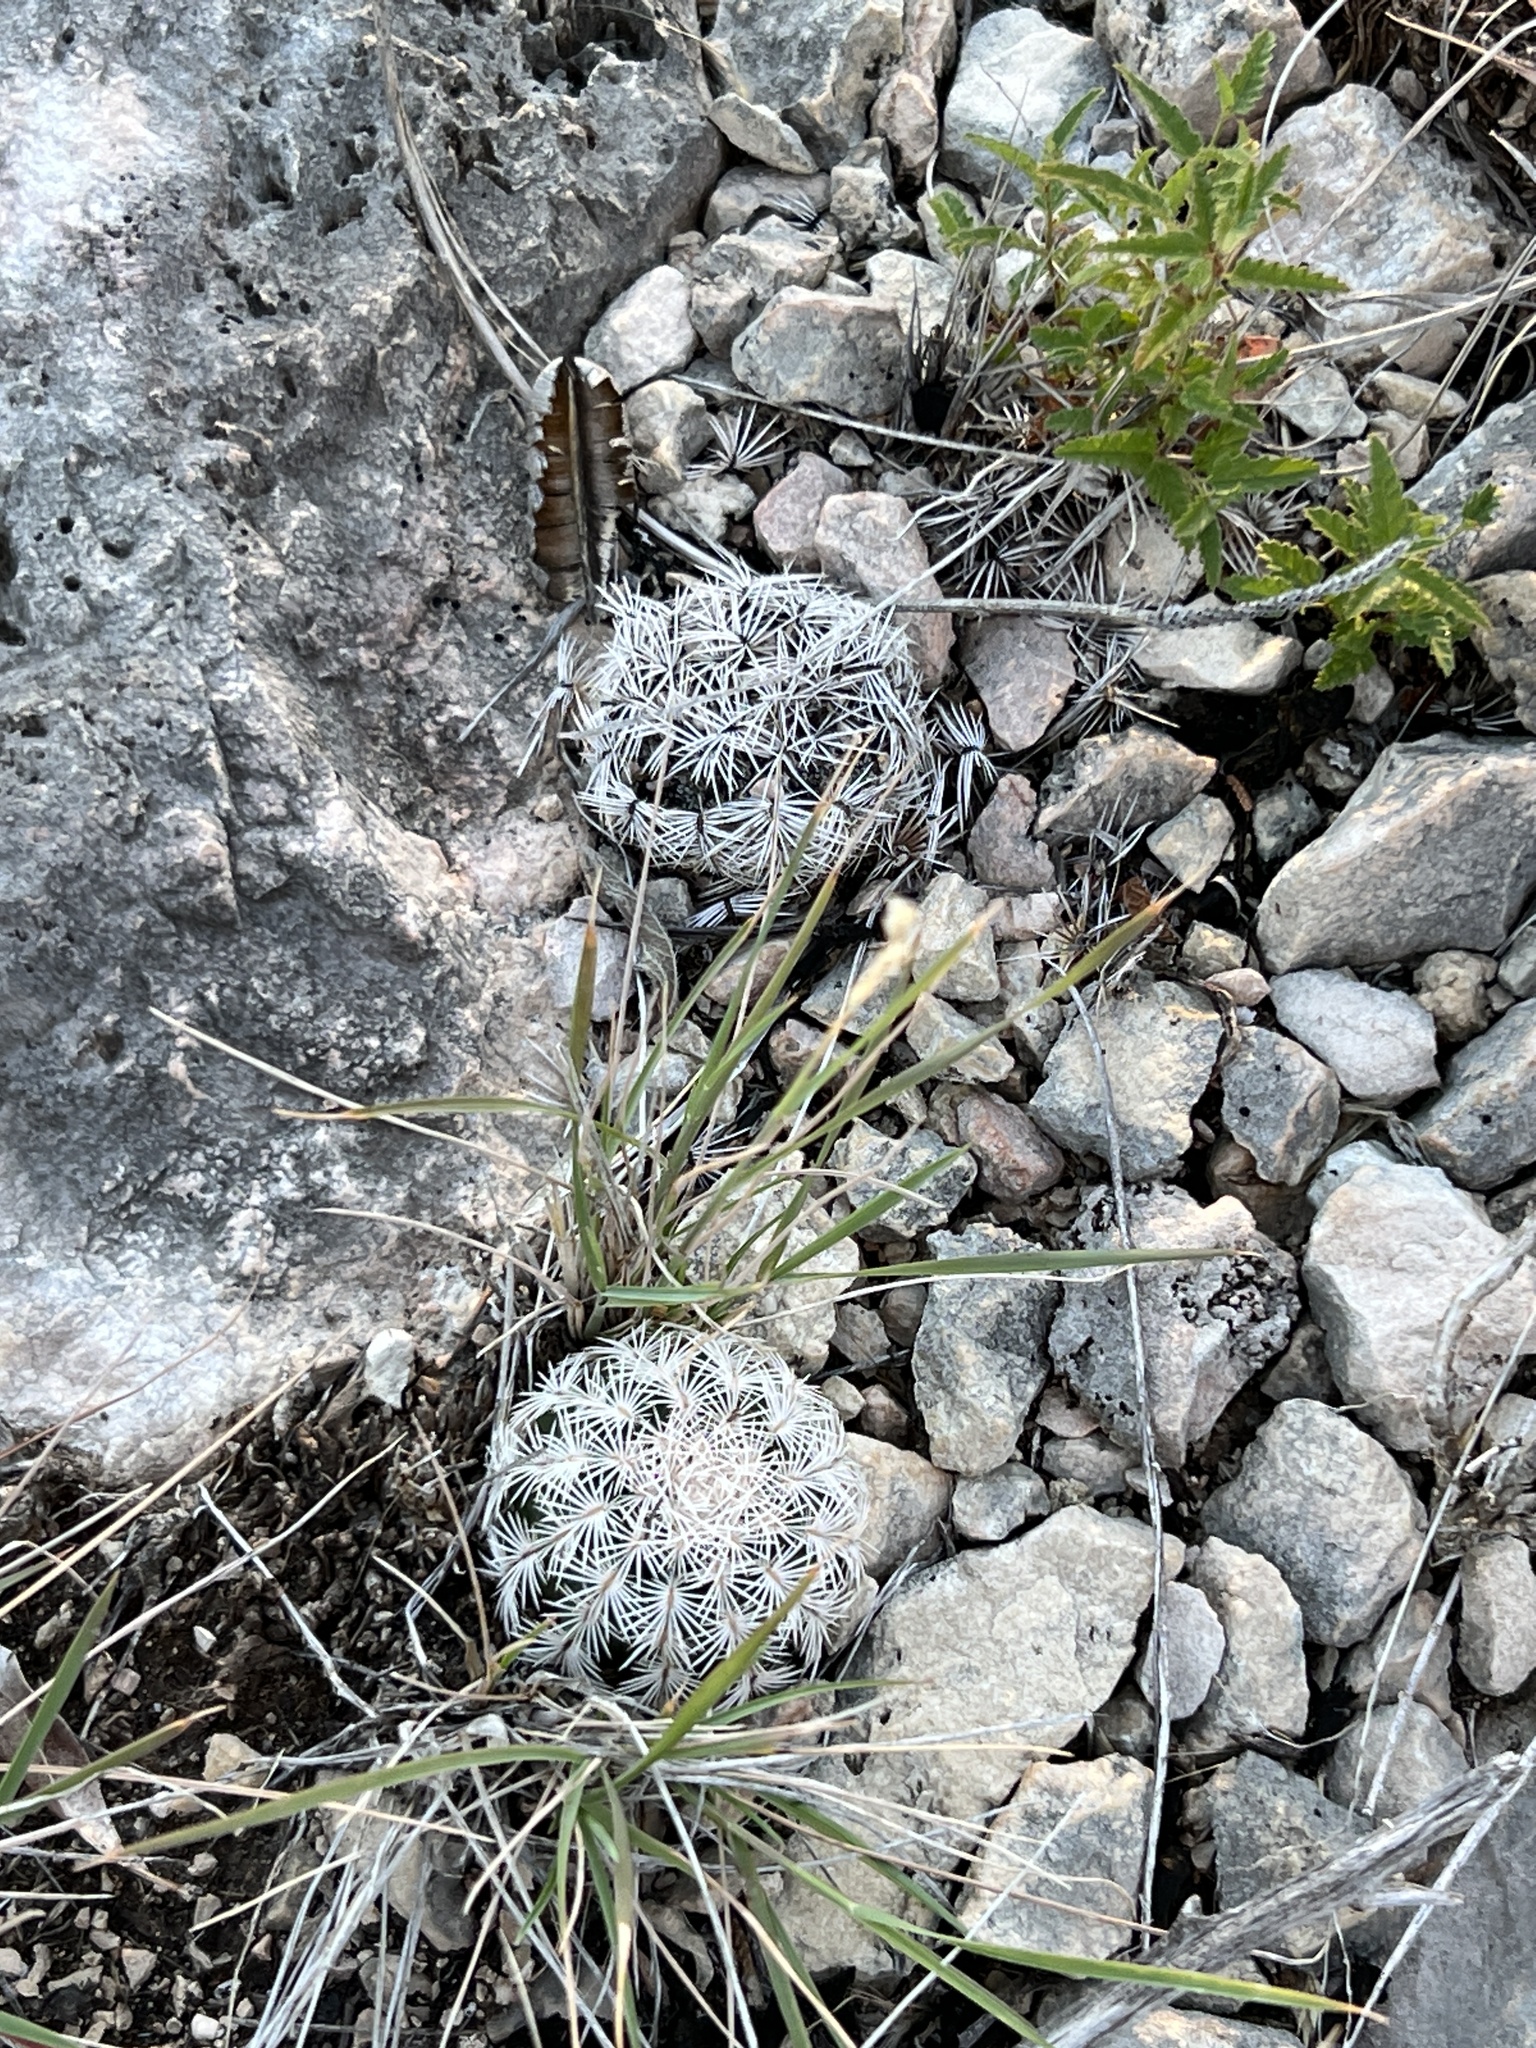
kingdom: Plantae
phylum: Tracheophyta
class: Magnoliopsida
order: Caryophyllales
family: Cactaceae
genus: Echinocereus
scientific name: Echinocereus reichenbachii
